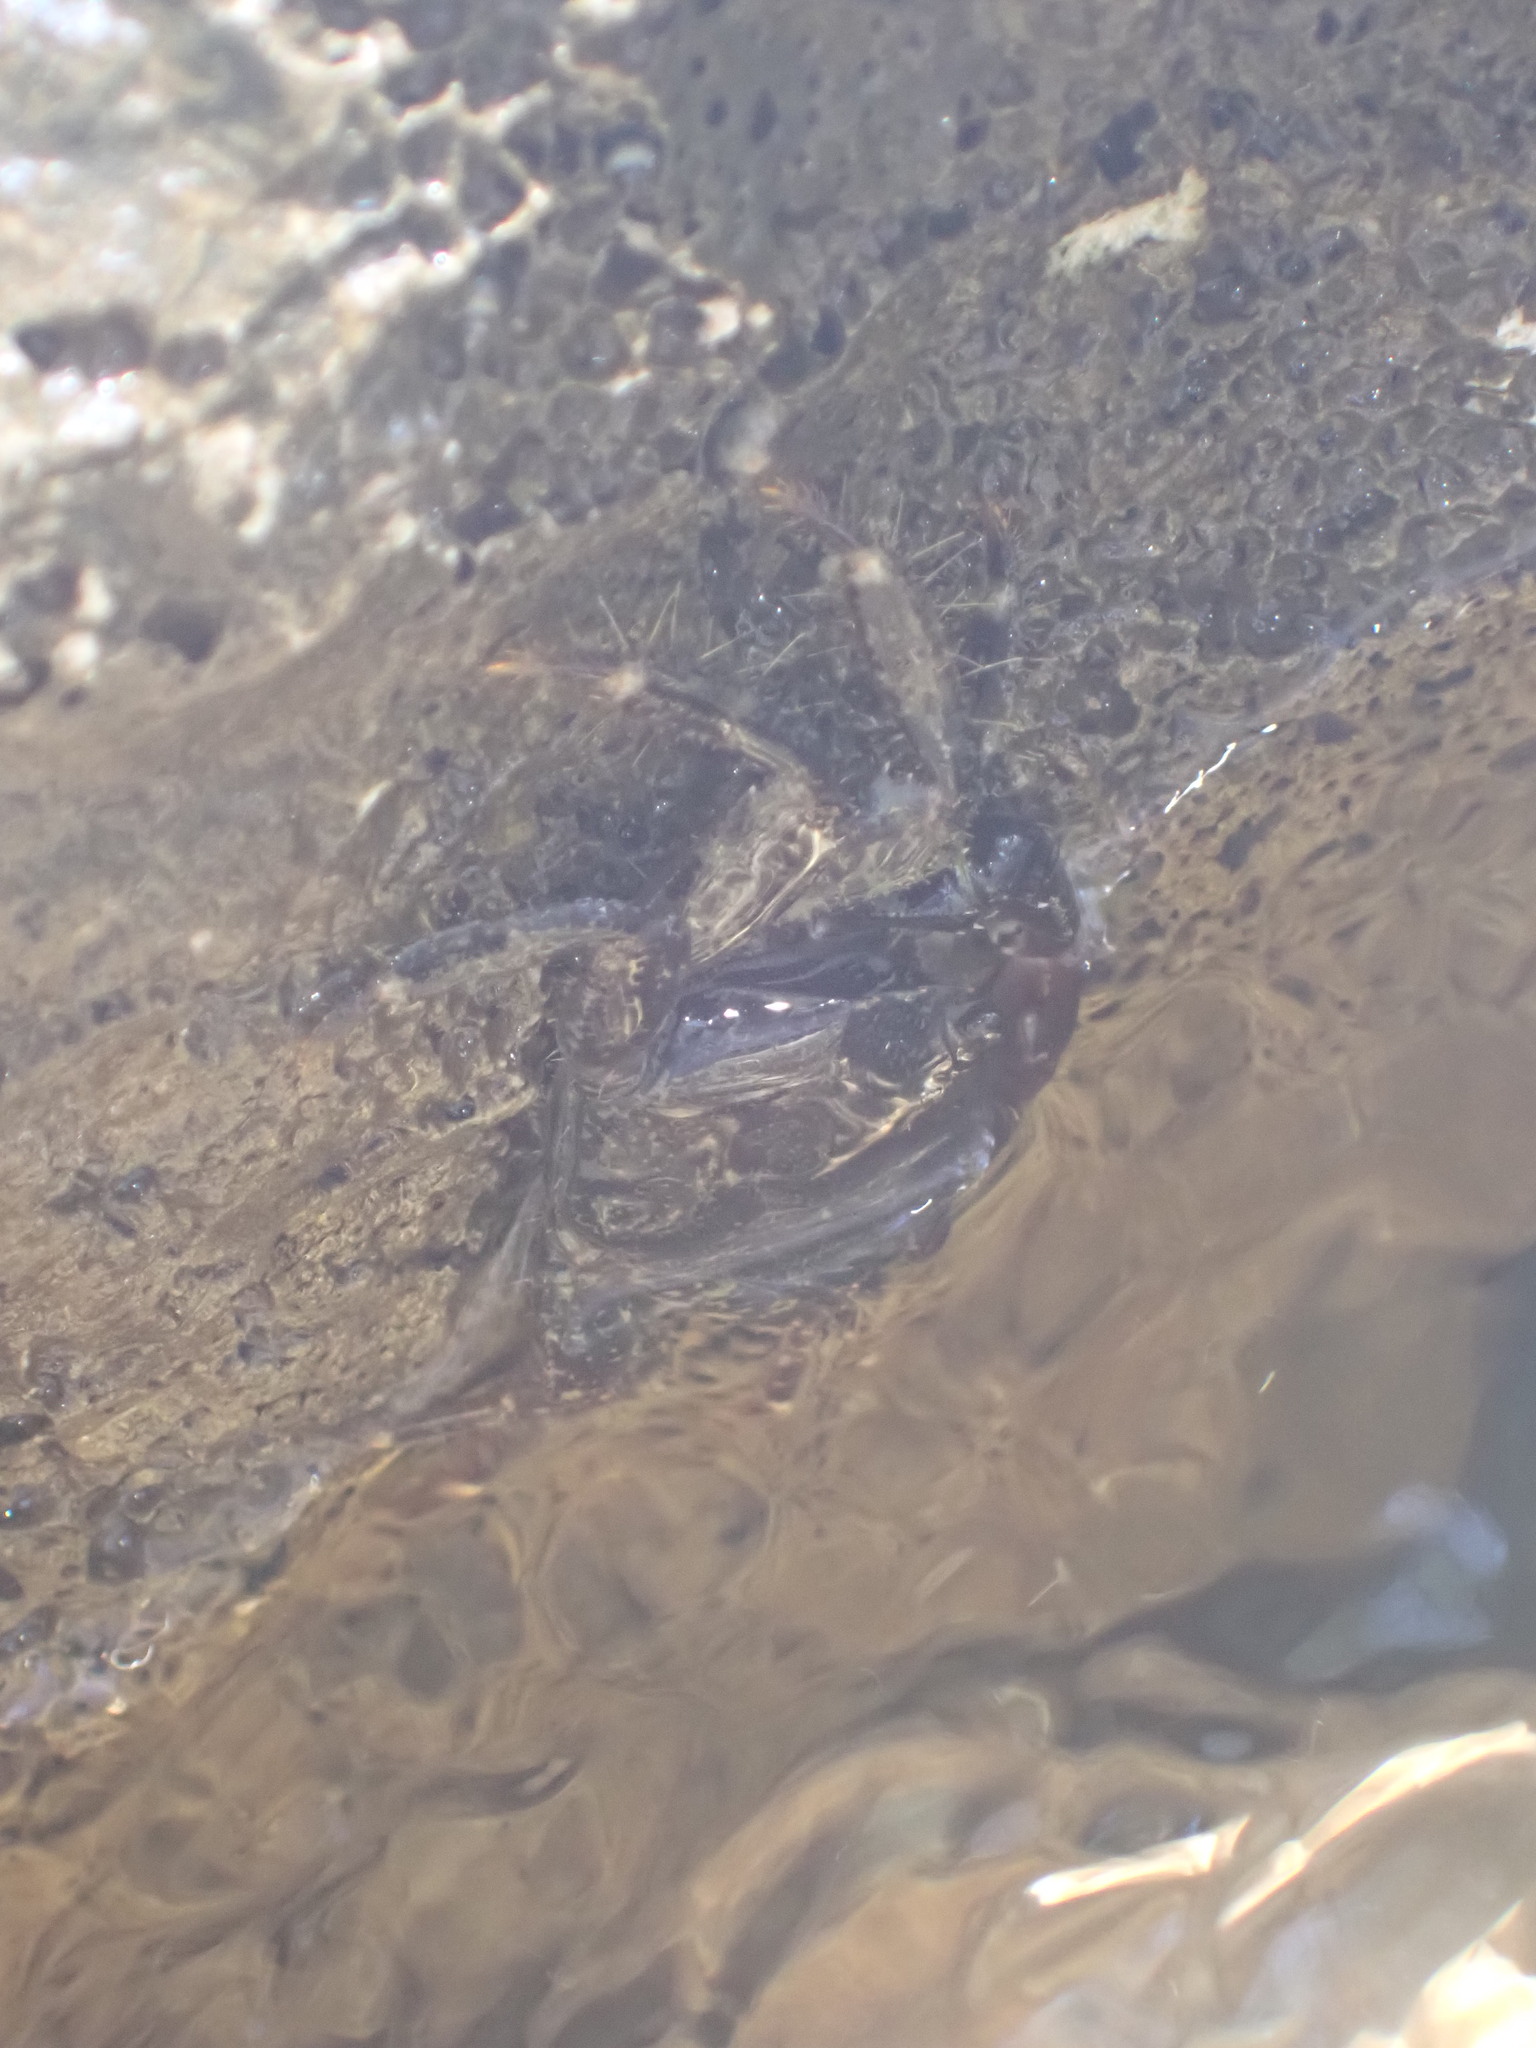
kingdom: Animalia
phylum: Arthropoda
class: Malacostraca
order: Decapoda
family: Grapsidae
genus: Pachygrapsus
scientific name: Pachygrapsus marmoratus
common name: Marbled rock crab
